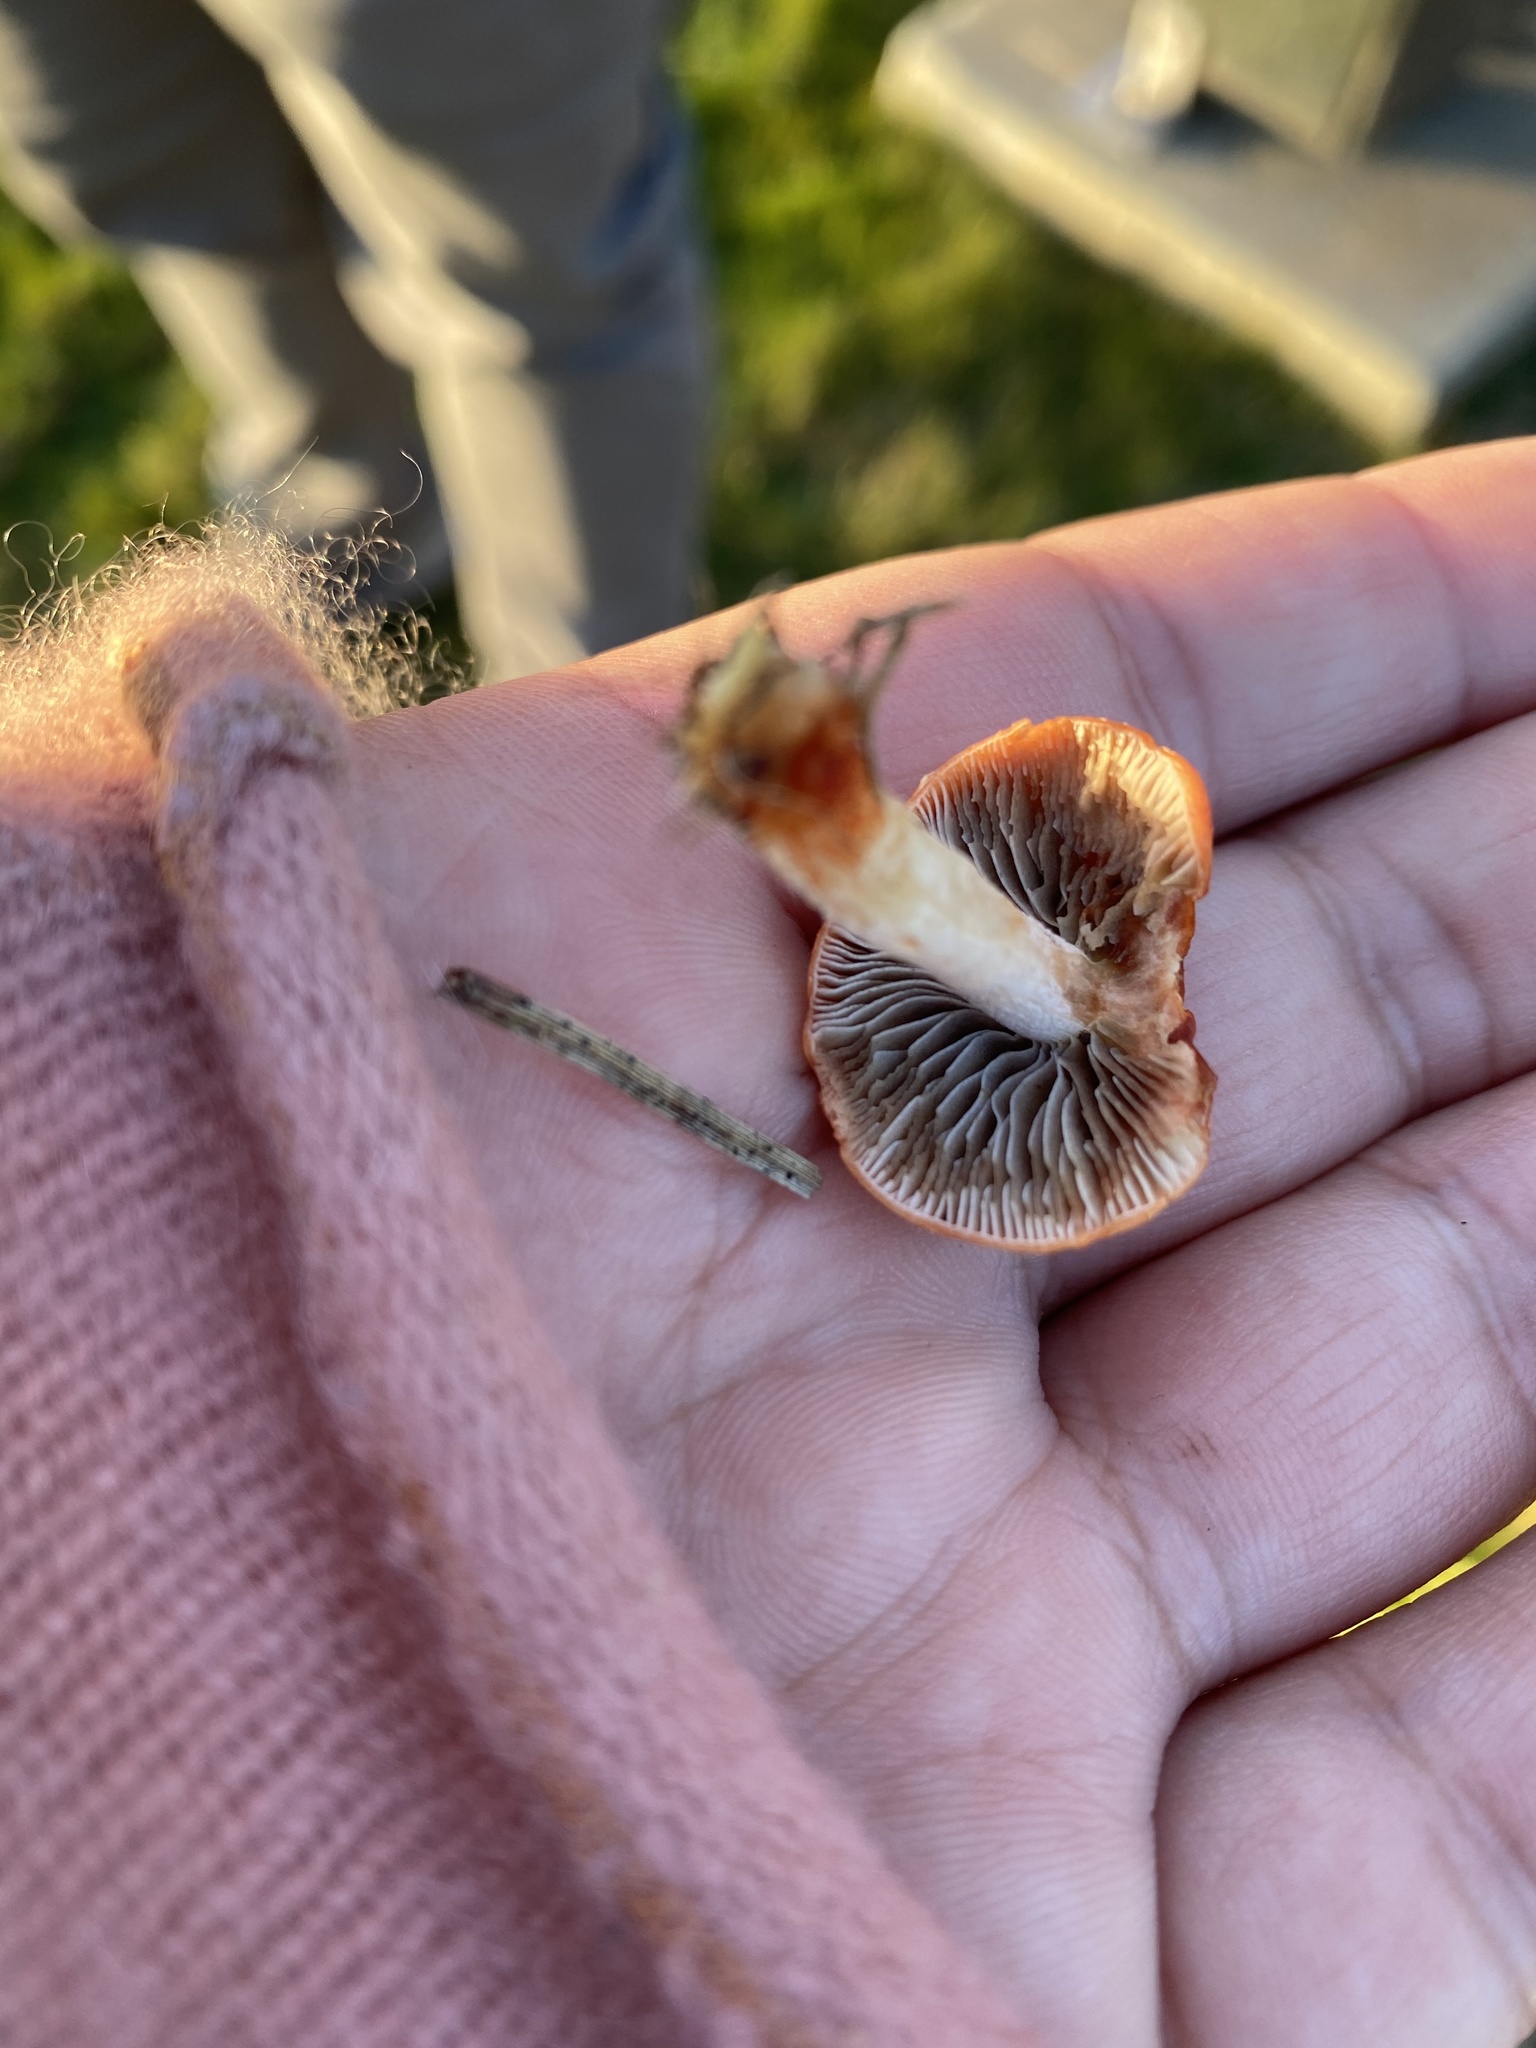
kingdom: Fungi
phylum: Basidiomycota
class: Agaricomycetes
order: Agaricales
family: Strophariaceae
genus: Leratiomyces
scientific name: Leratiomyces ceres
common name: Redlead roundhead
